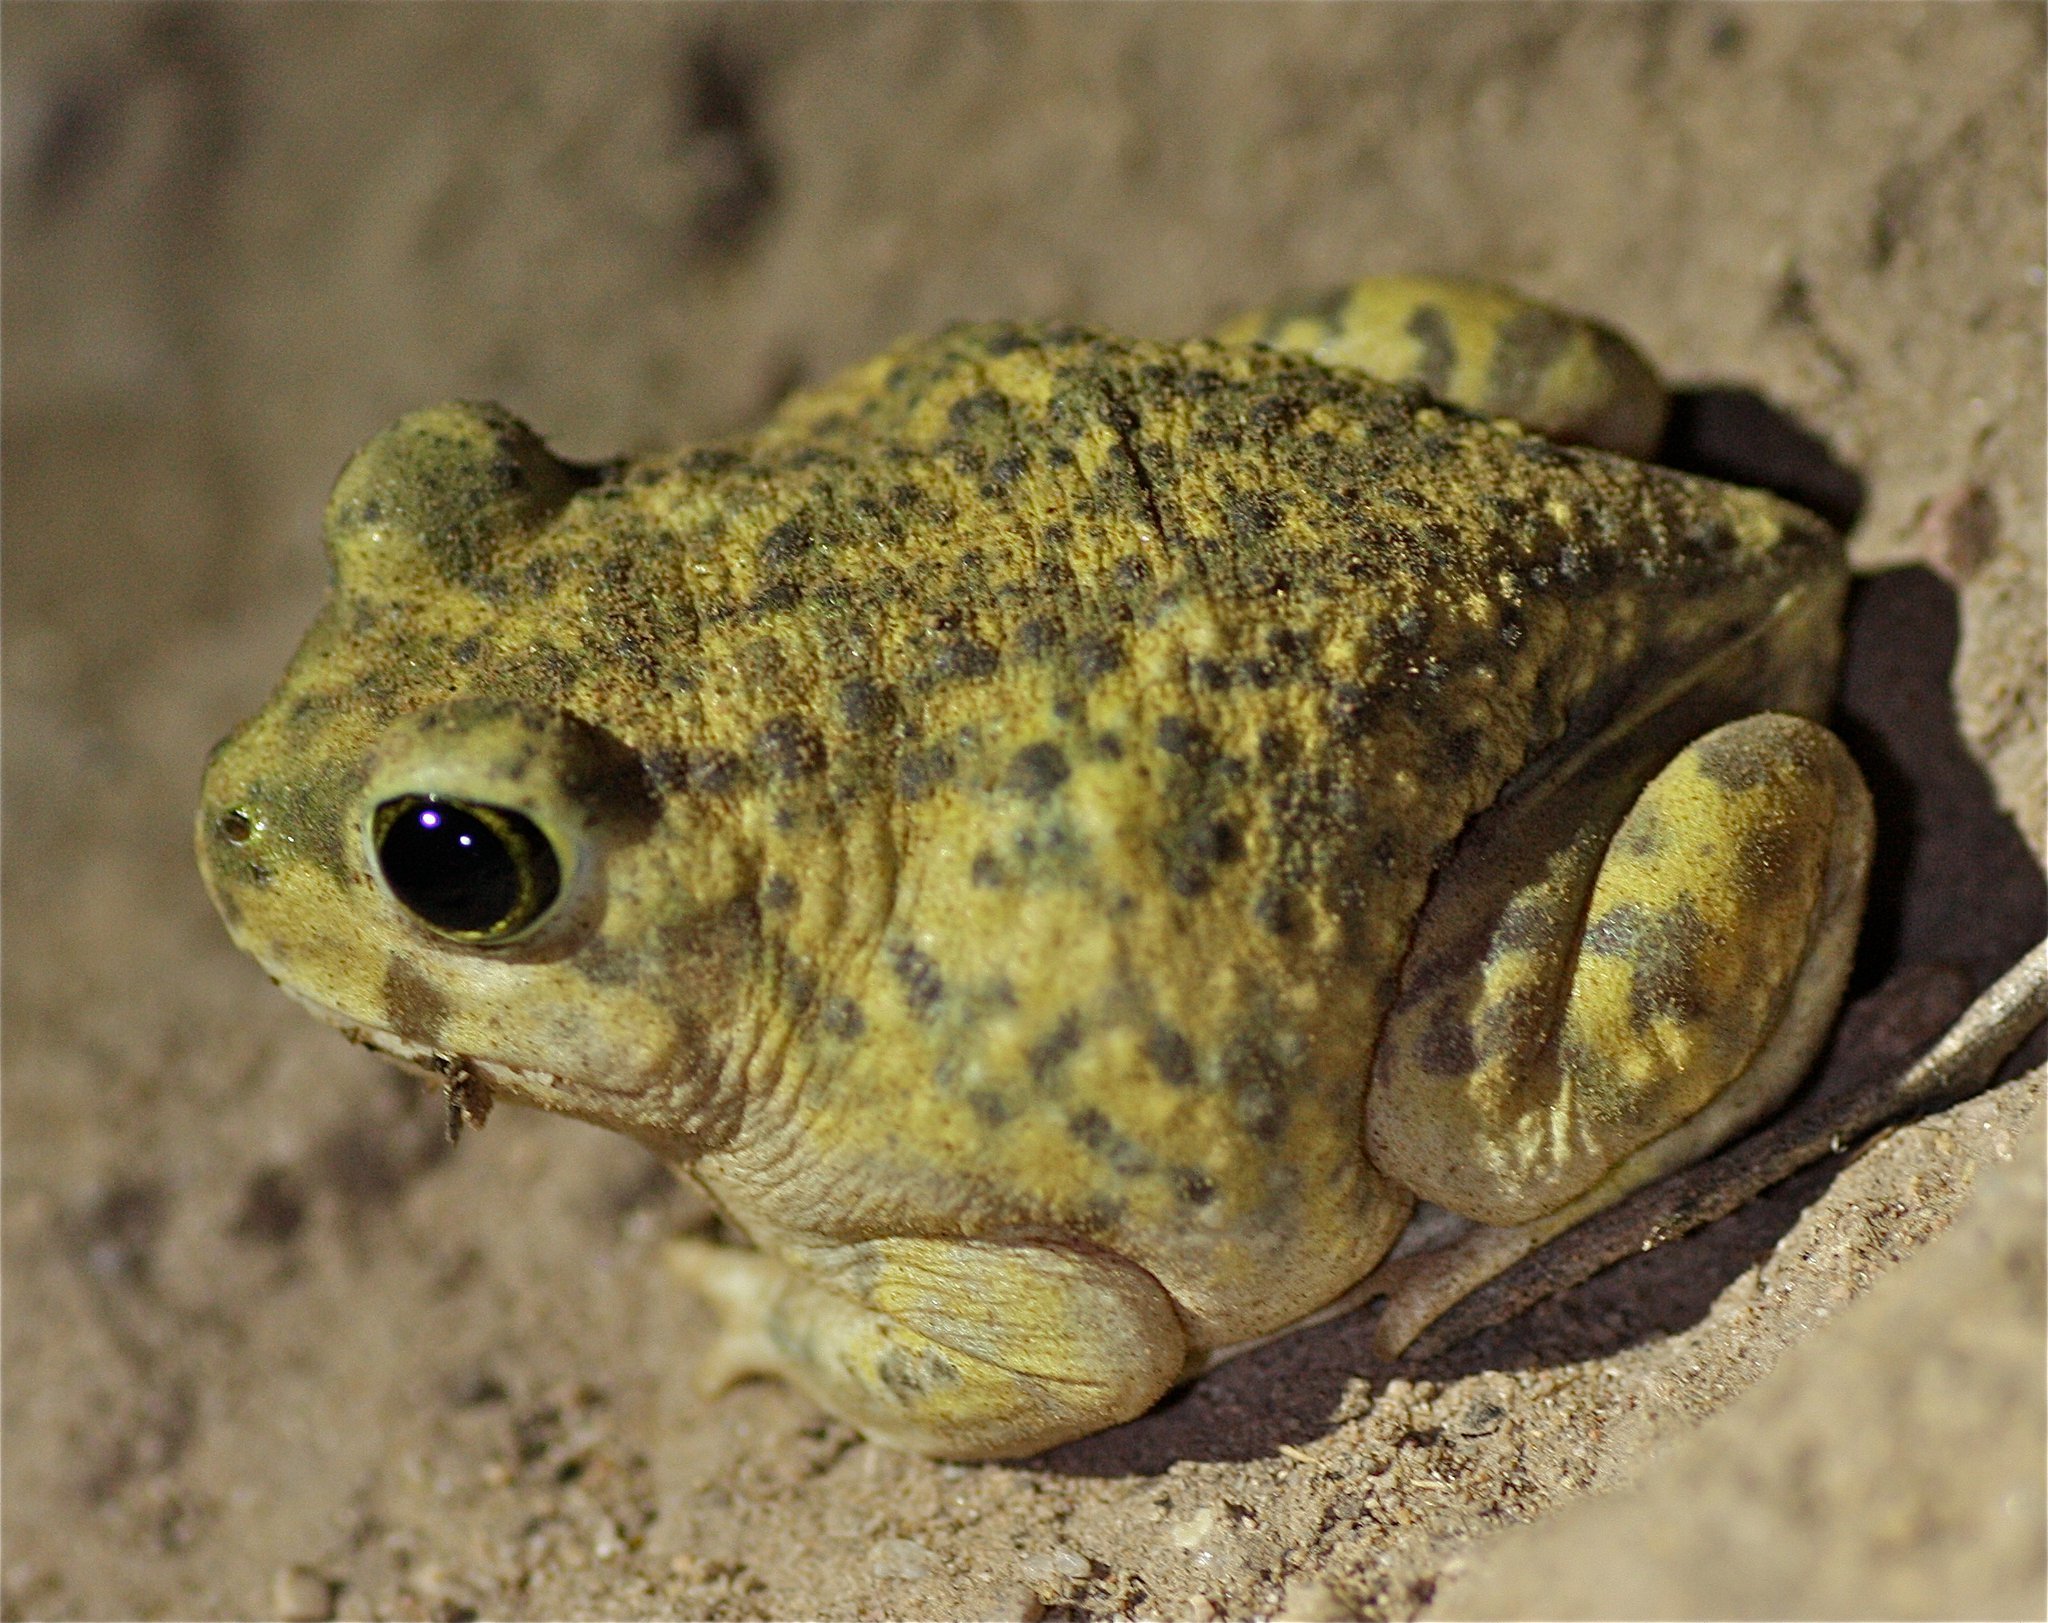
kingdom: Animalia
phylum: Chordata
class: Amphibia
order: Anura
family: Scaphiopodidae
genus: Scaphiopus
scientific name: Scaphiopus couchii
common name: Couch's spadefoot toad
